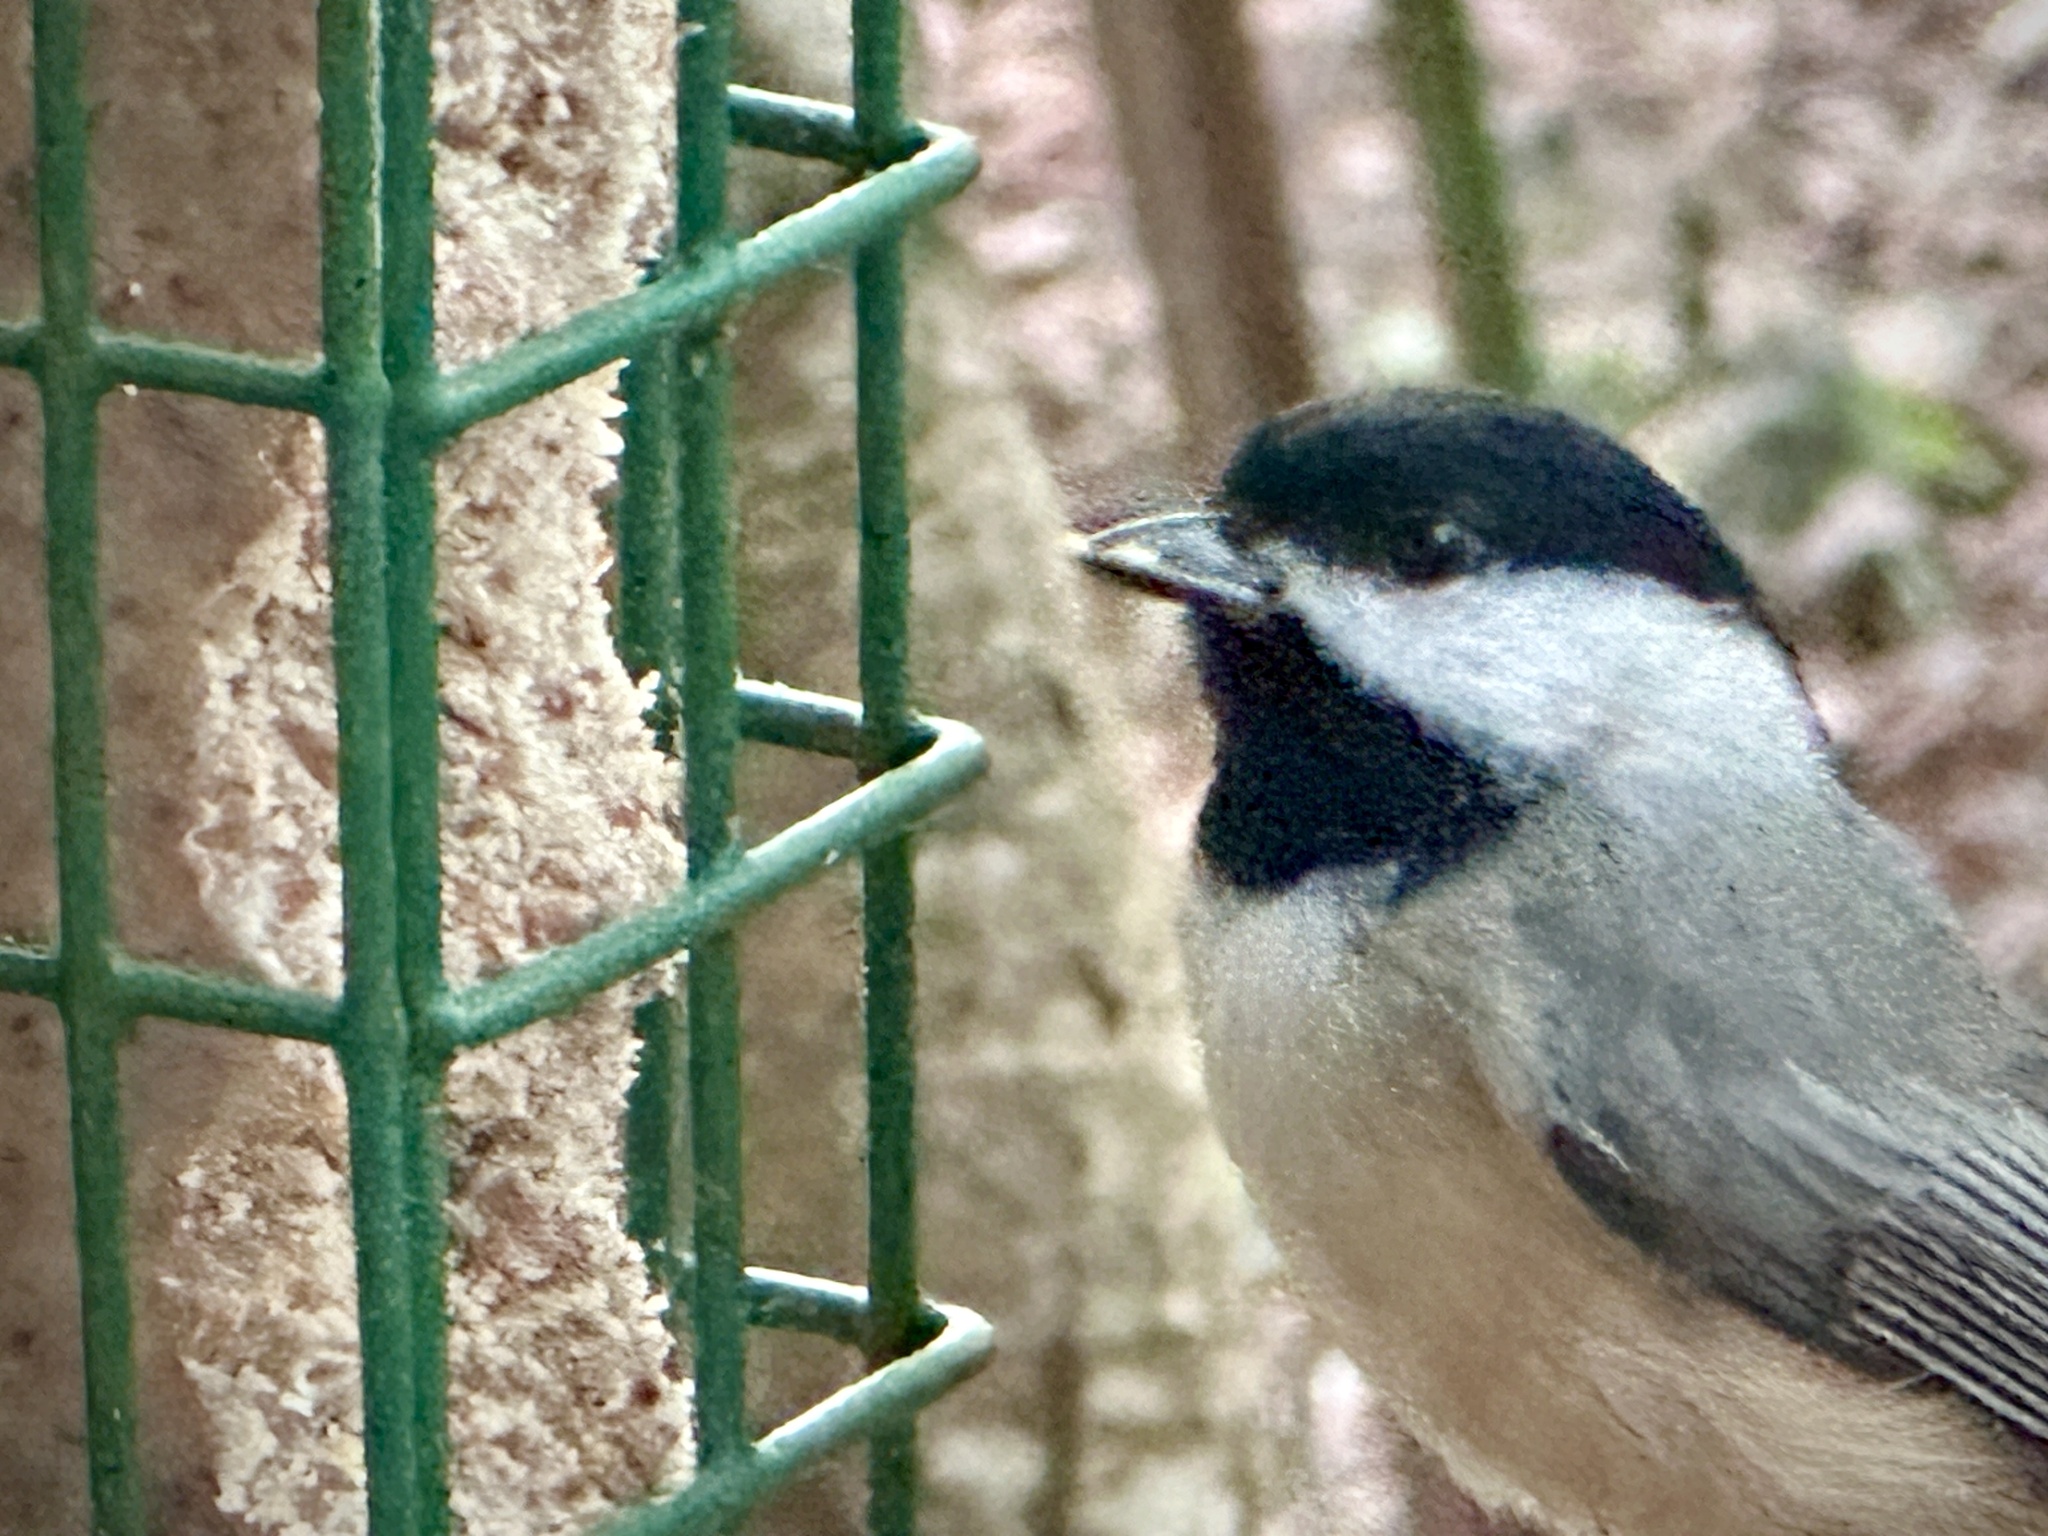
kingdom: Animalia
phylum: Chordata
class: Aves
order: Passeriformes
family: Paridae
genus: Poecile
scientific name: Poecile carolinensis
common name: Carolina chickadee
